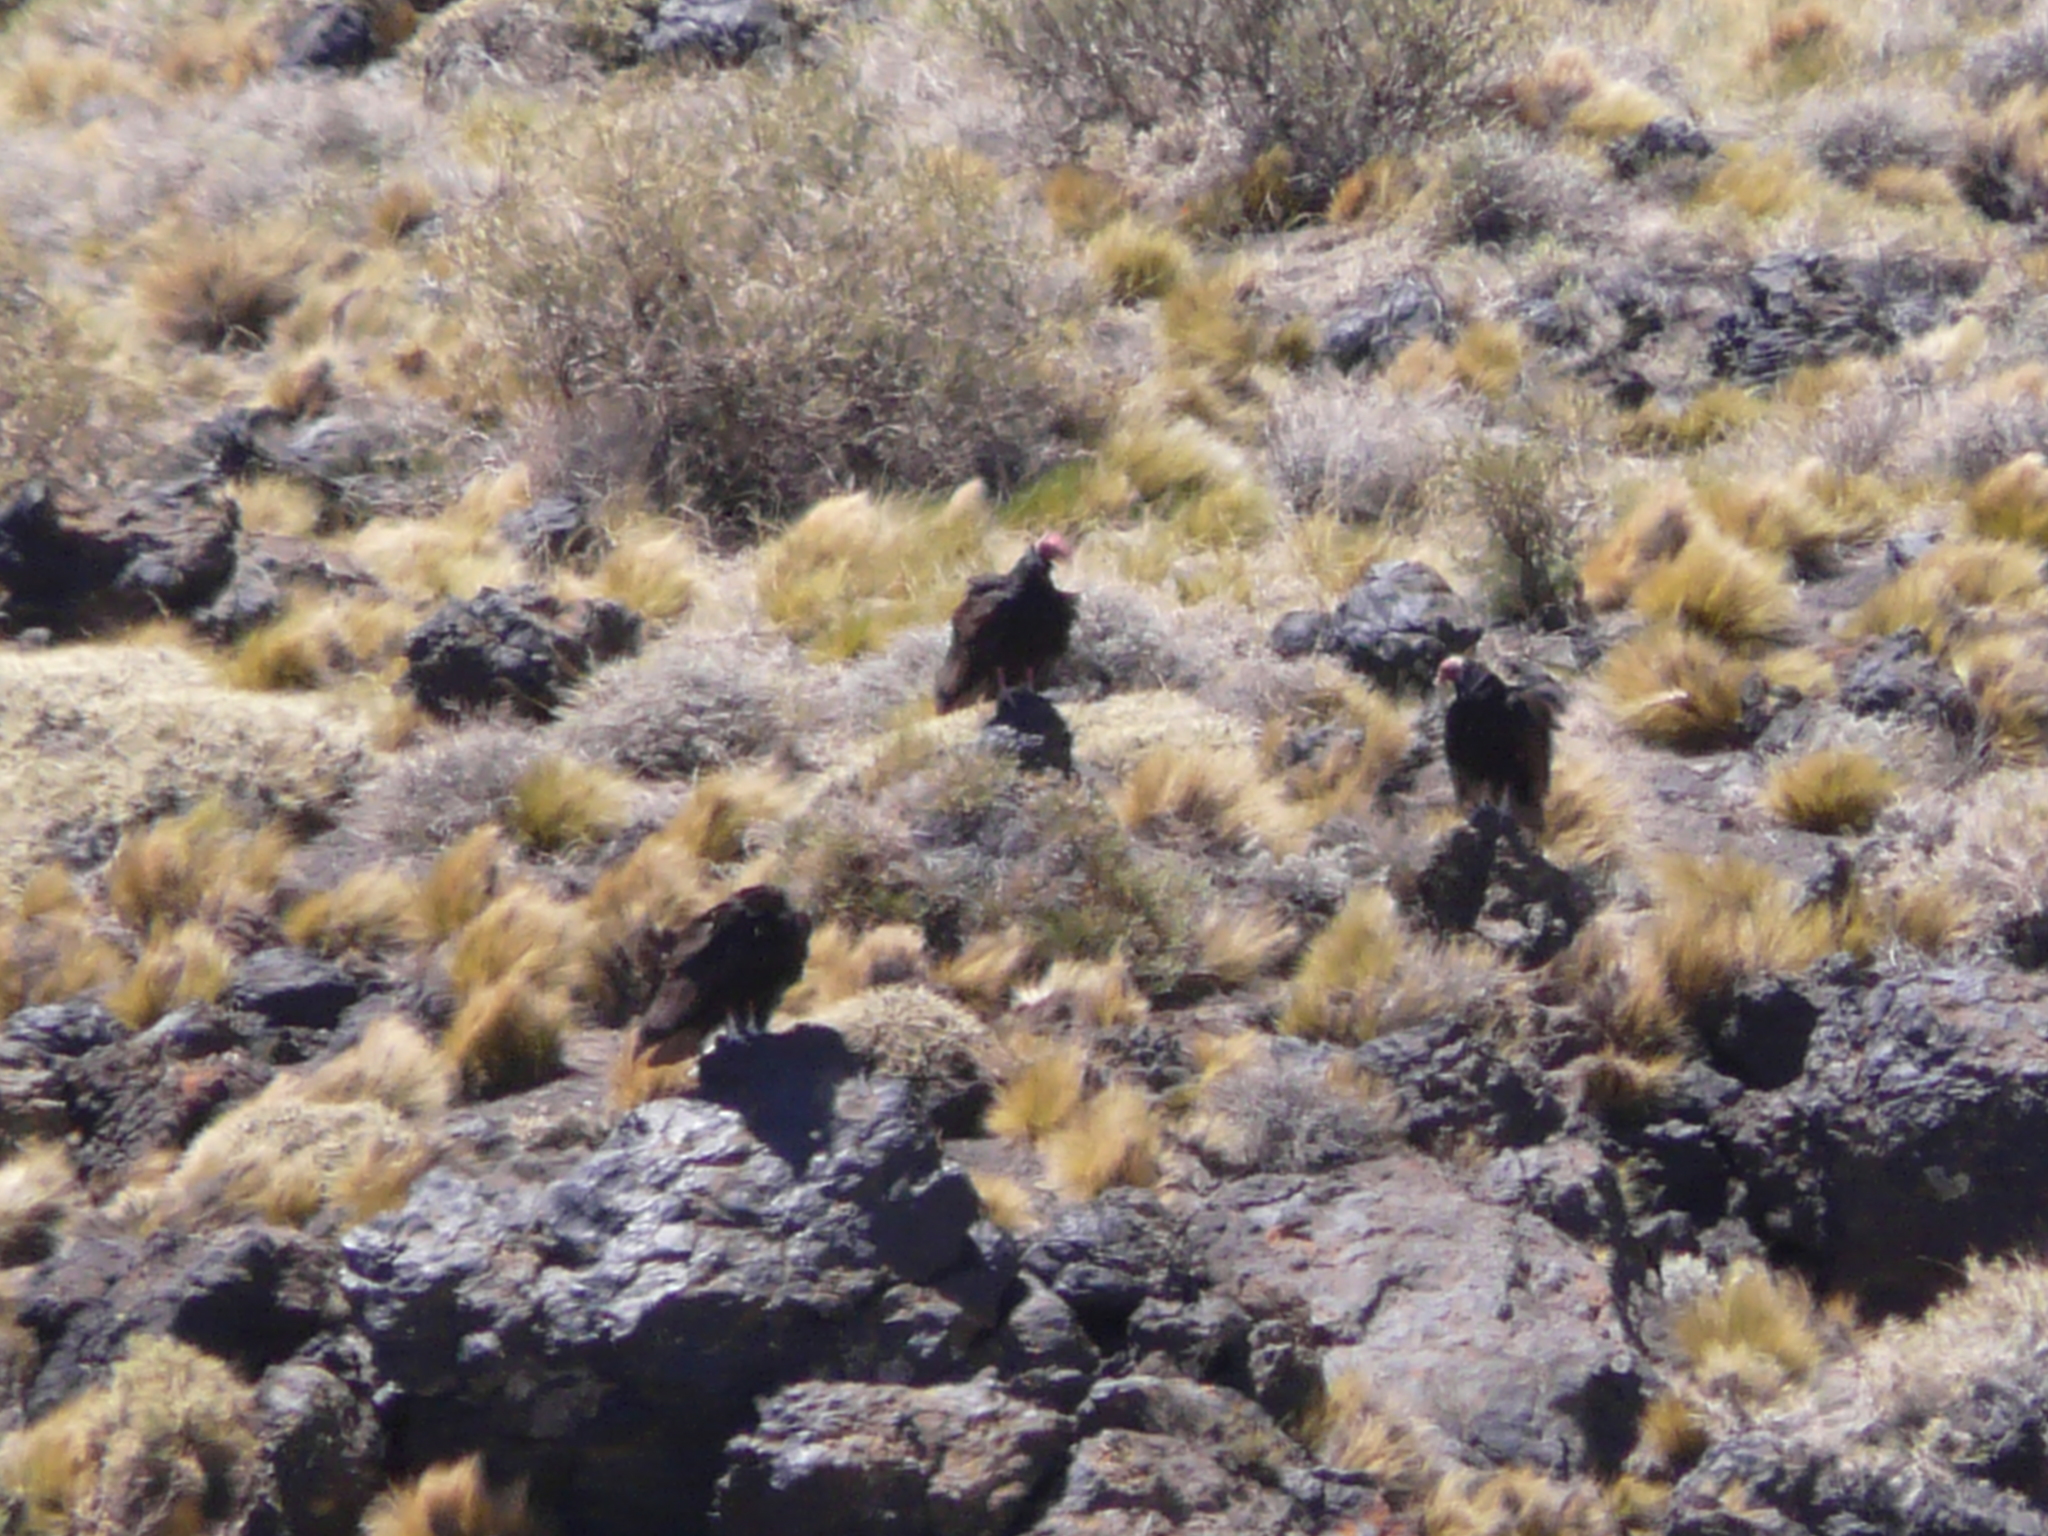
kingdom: Animalia
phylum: Chordata
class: Aves
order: Accipitriformes
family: Cathartidae
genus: Cathartes
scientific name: Cathartes aura
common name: Turkey vulture
